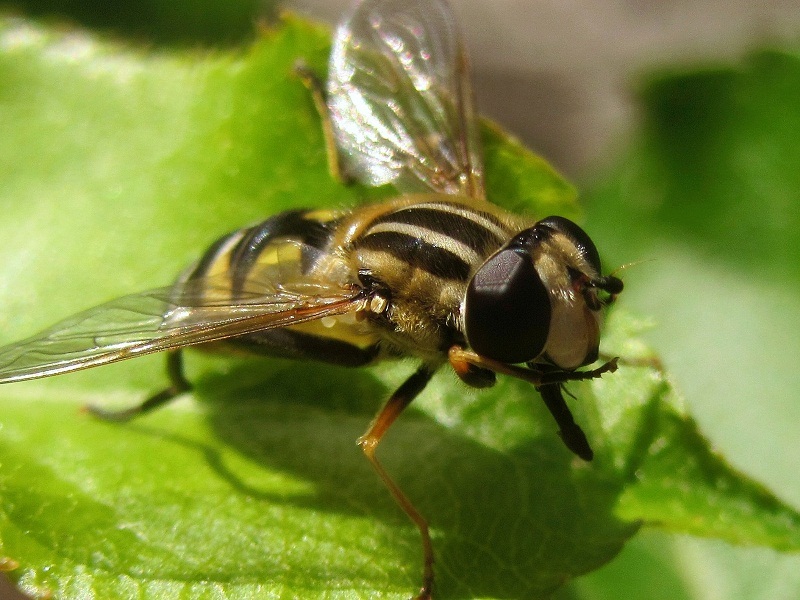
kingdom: Animalia
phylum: Arthropoda
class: Insecta
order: Diptera
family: Syrphidae
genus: Helophilus
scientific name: Helophilus trivittatus
